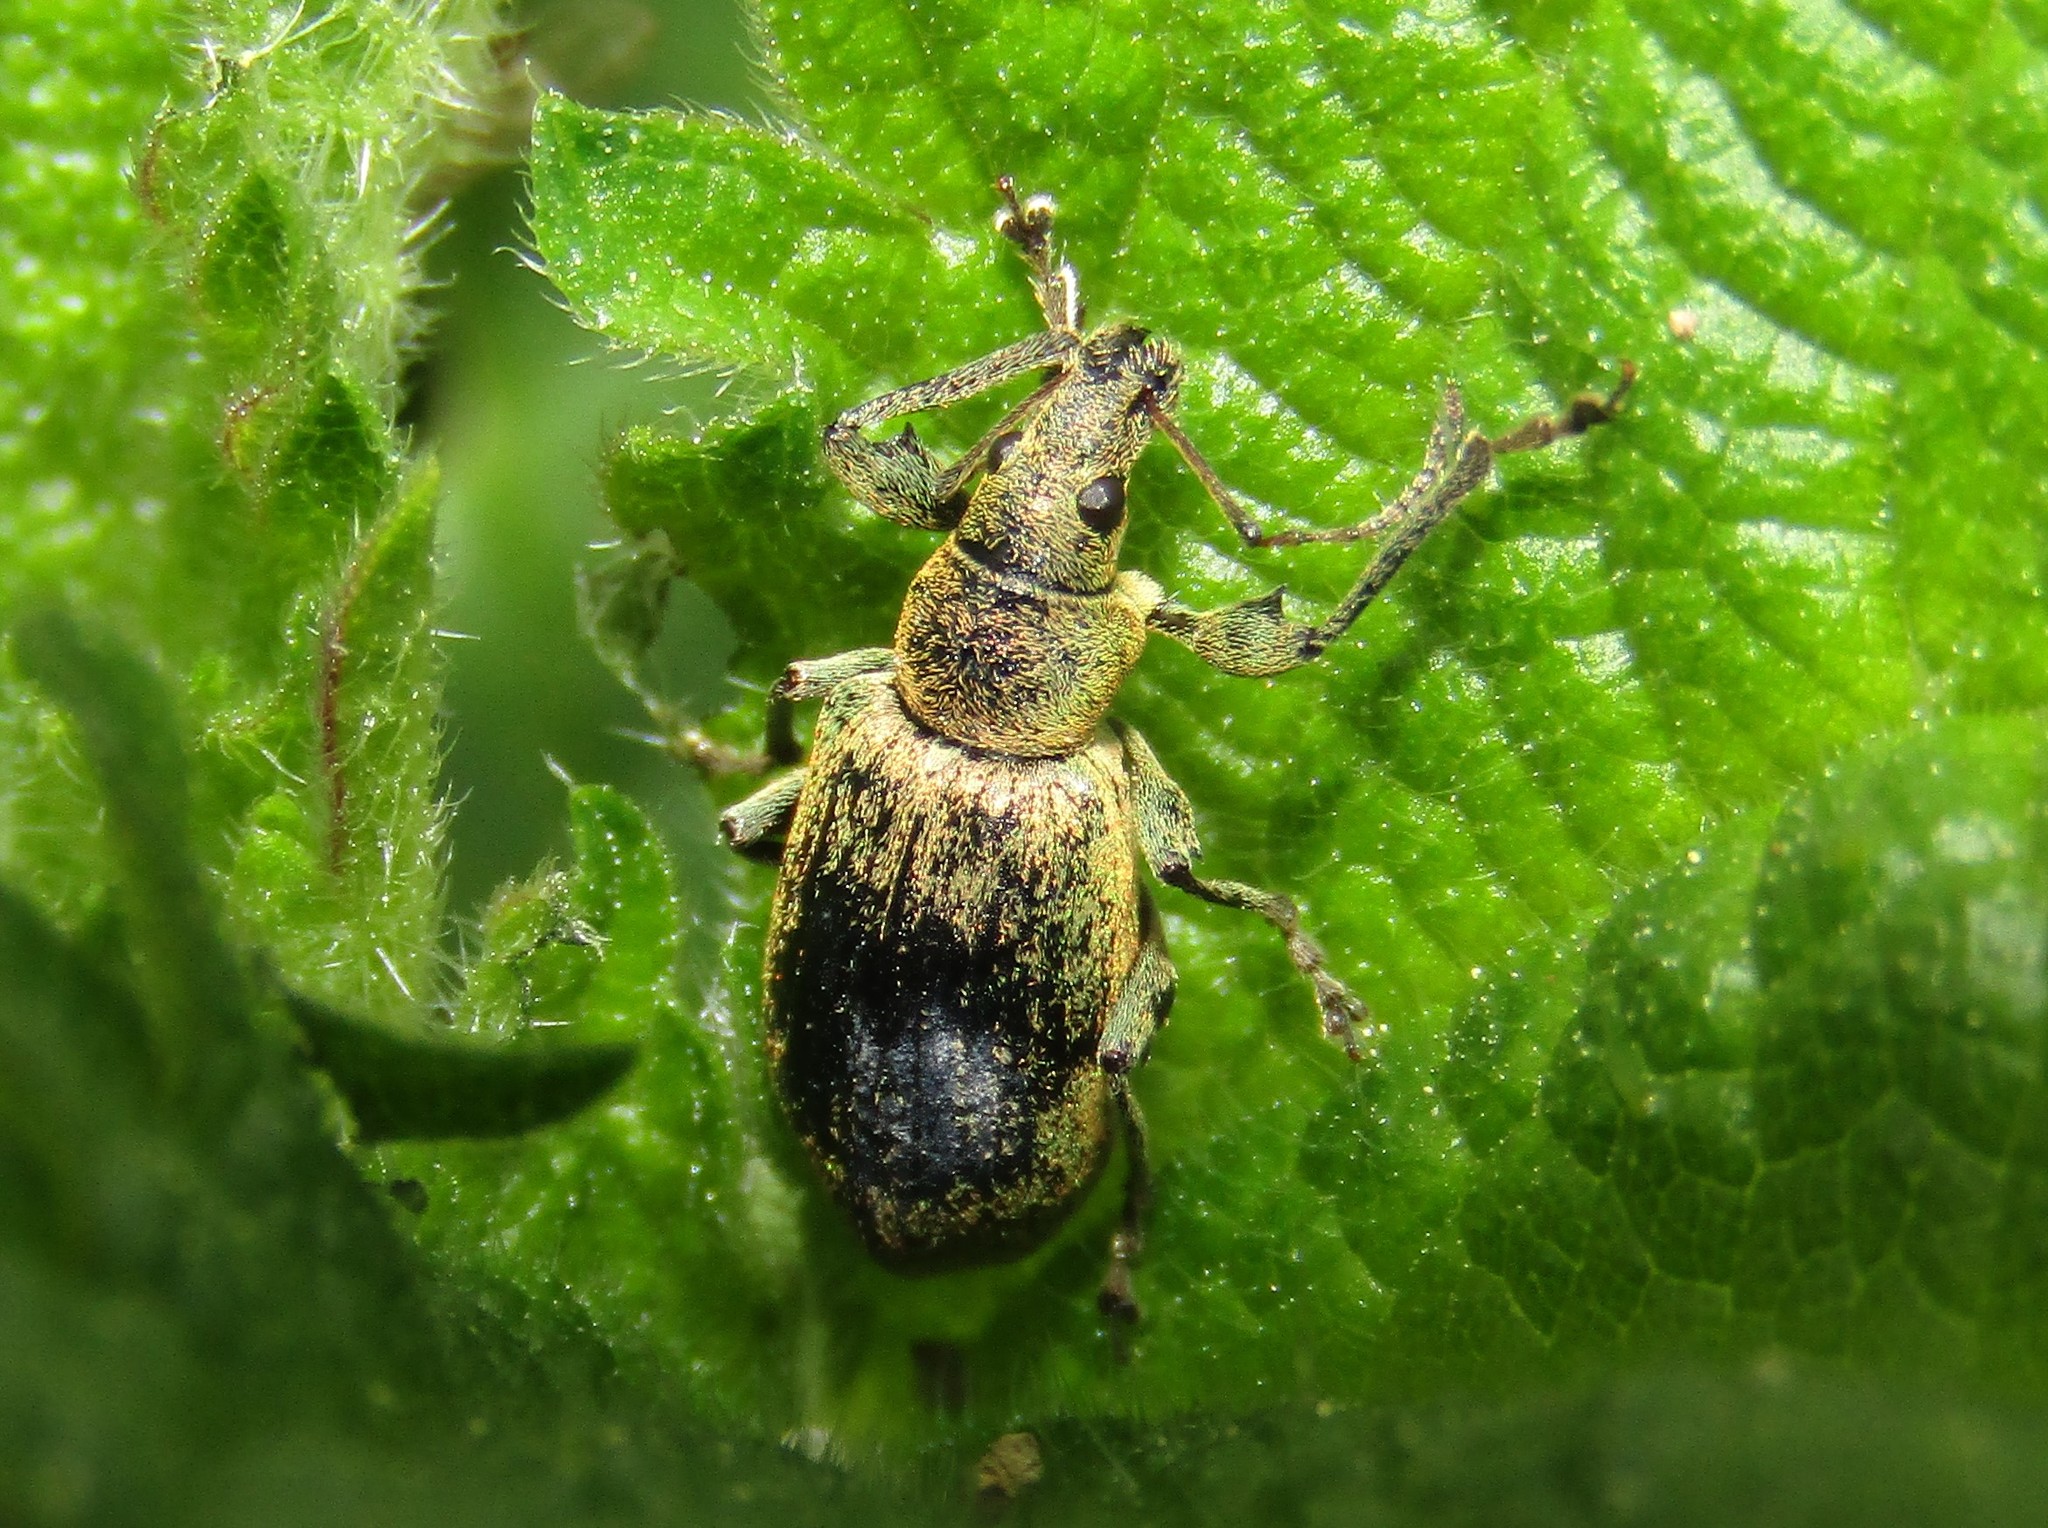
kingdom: Animalia
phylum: Arthropoda
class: Insecta
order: Coleoptera
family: Curculionidae
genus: Phyllobius
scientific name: Phyllobius pomaceus
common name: Green nettle weevil
